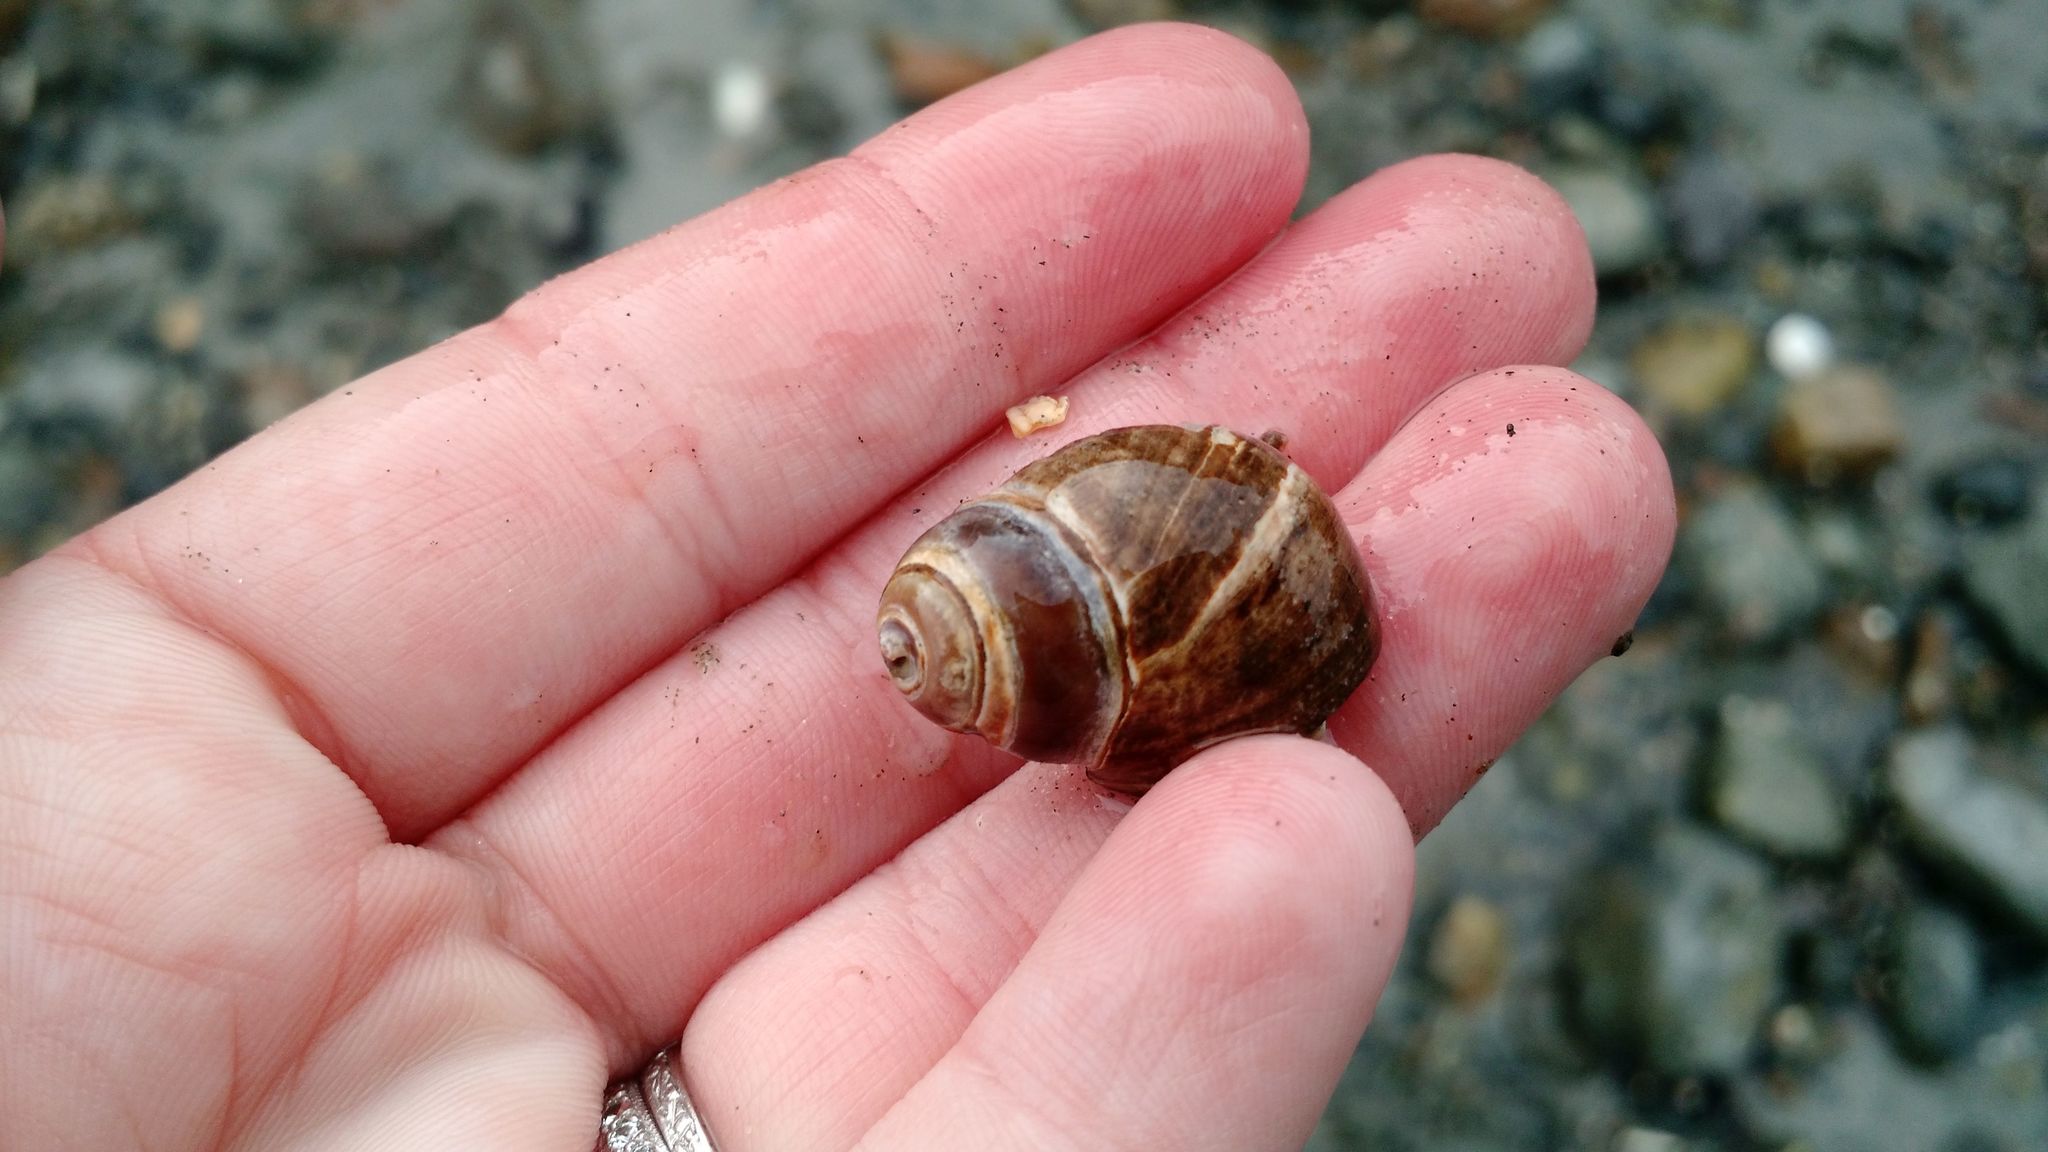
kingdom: Animalia
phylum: Mollusca
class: Gastropoda
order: Littorinimorpha
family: Littorinidae
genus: Littorina
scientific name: Littorina littorea
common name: Common periwinkle
